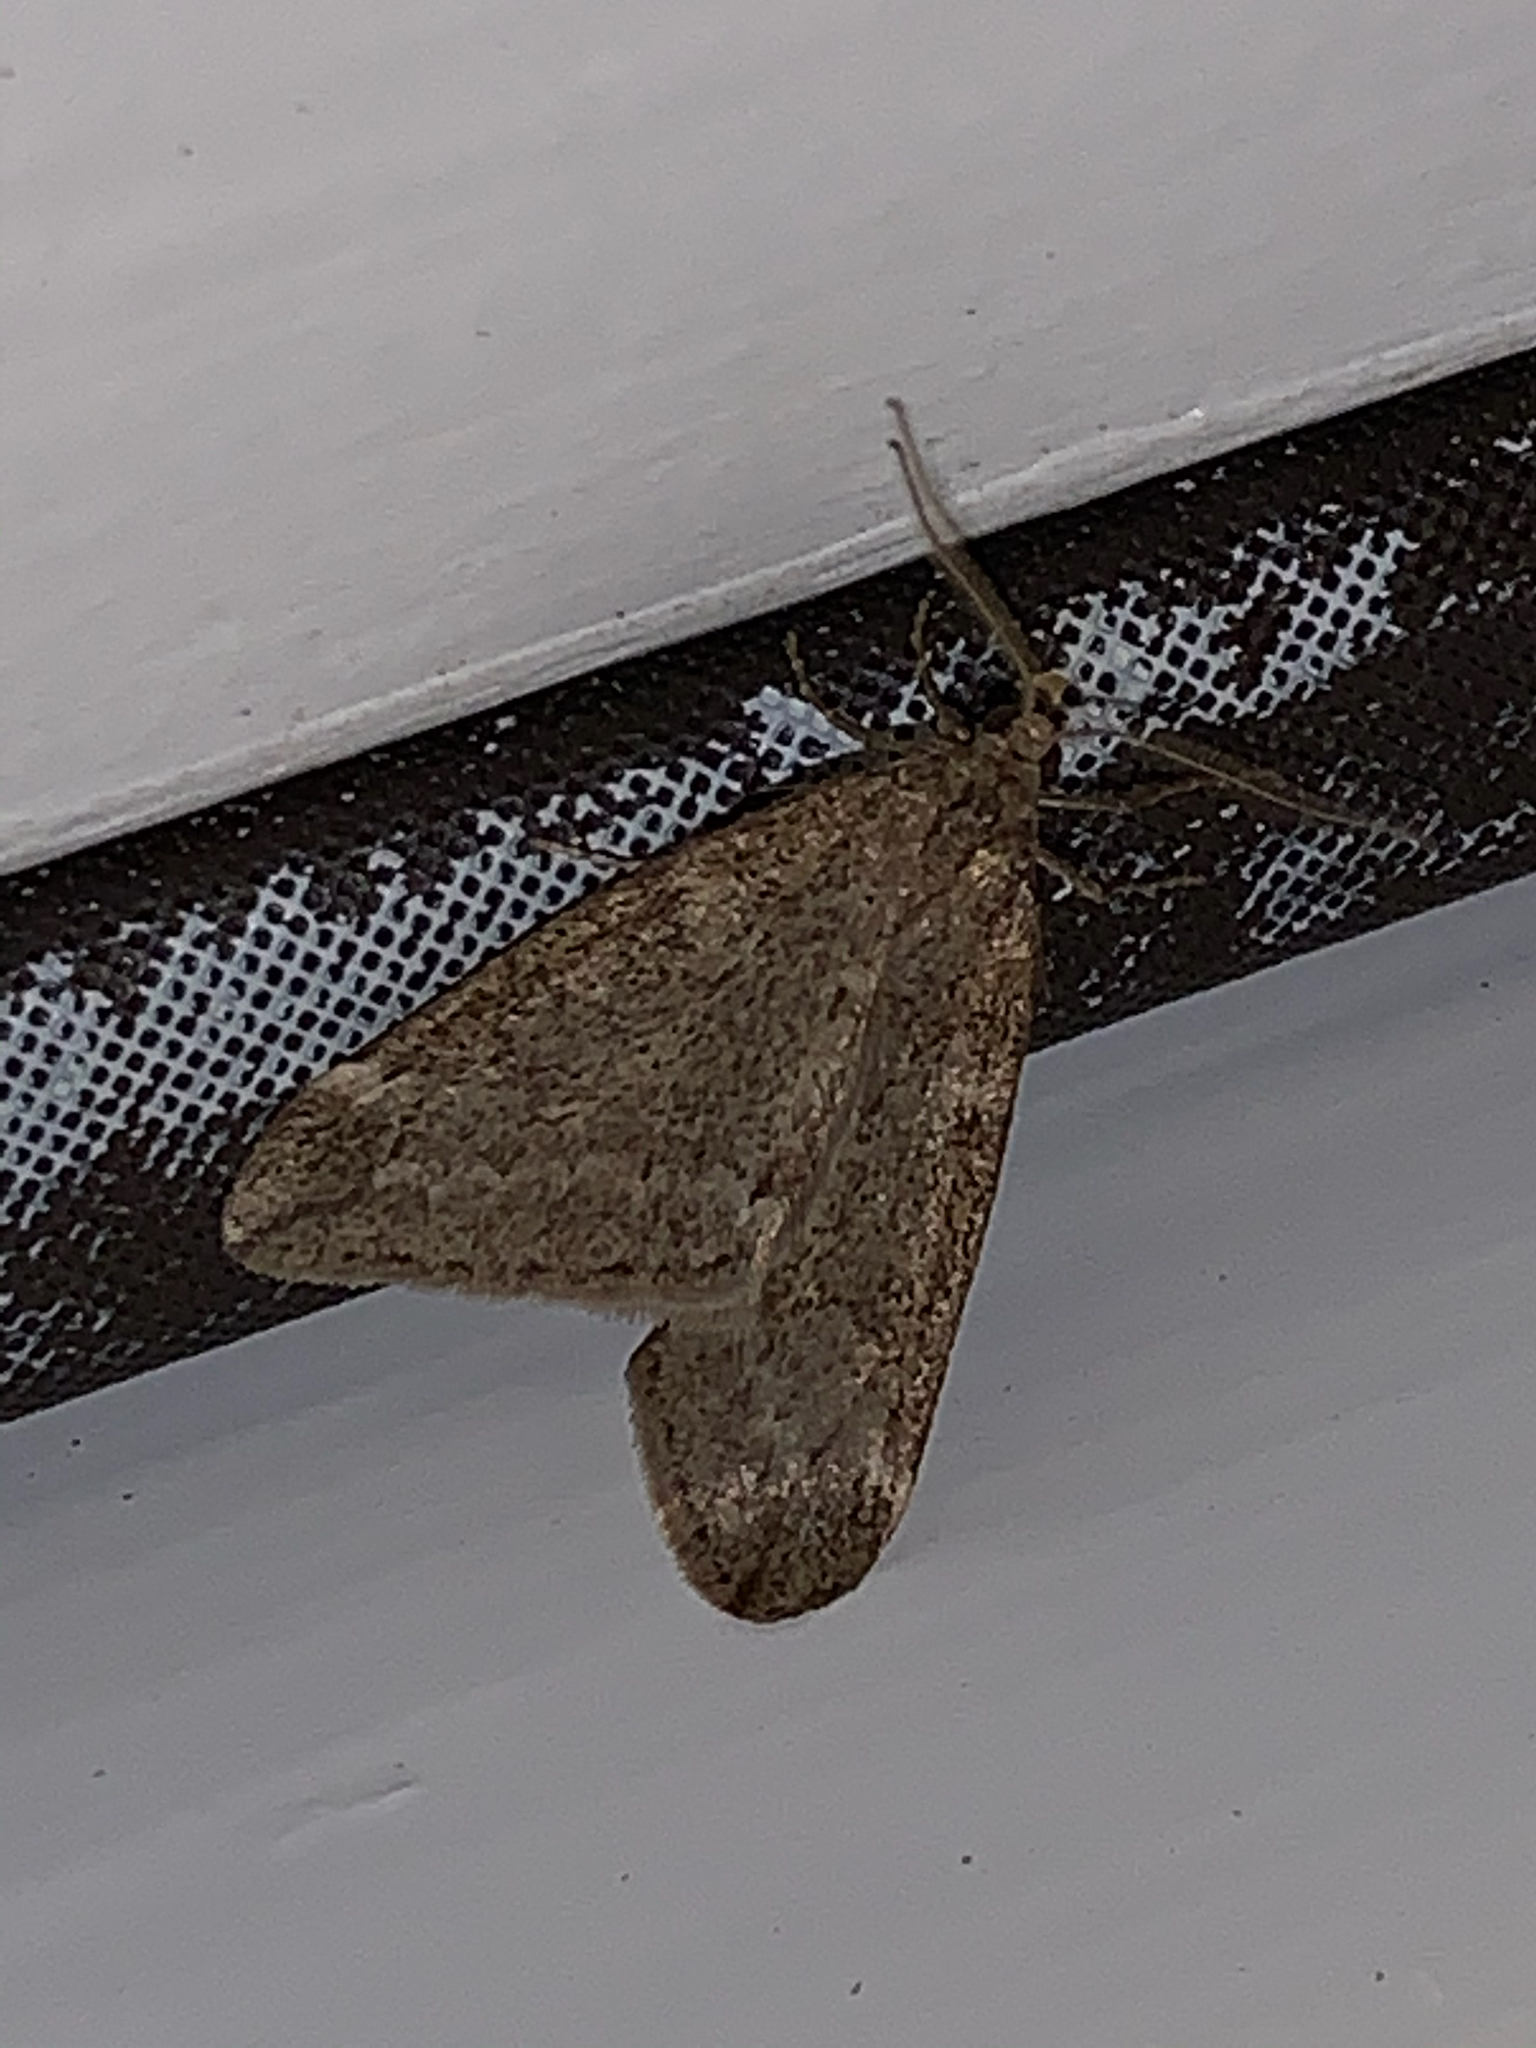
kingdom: Animalia
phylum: Arthropoda
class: Insecta
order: Lepidoptera
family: Geometridae
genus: Alsophila
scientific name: Alsophila pometaria
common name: Fall cankerworm
